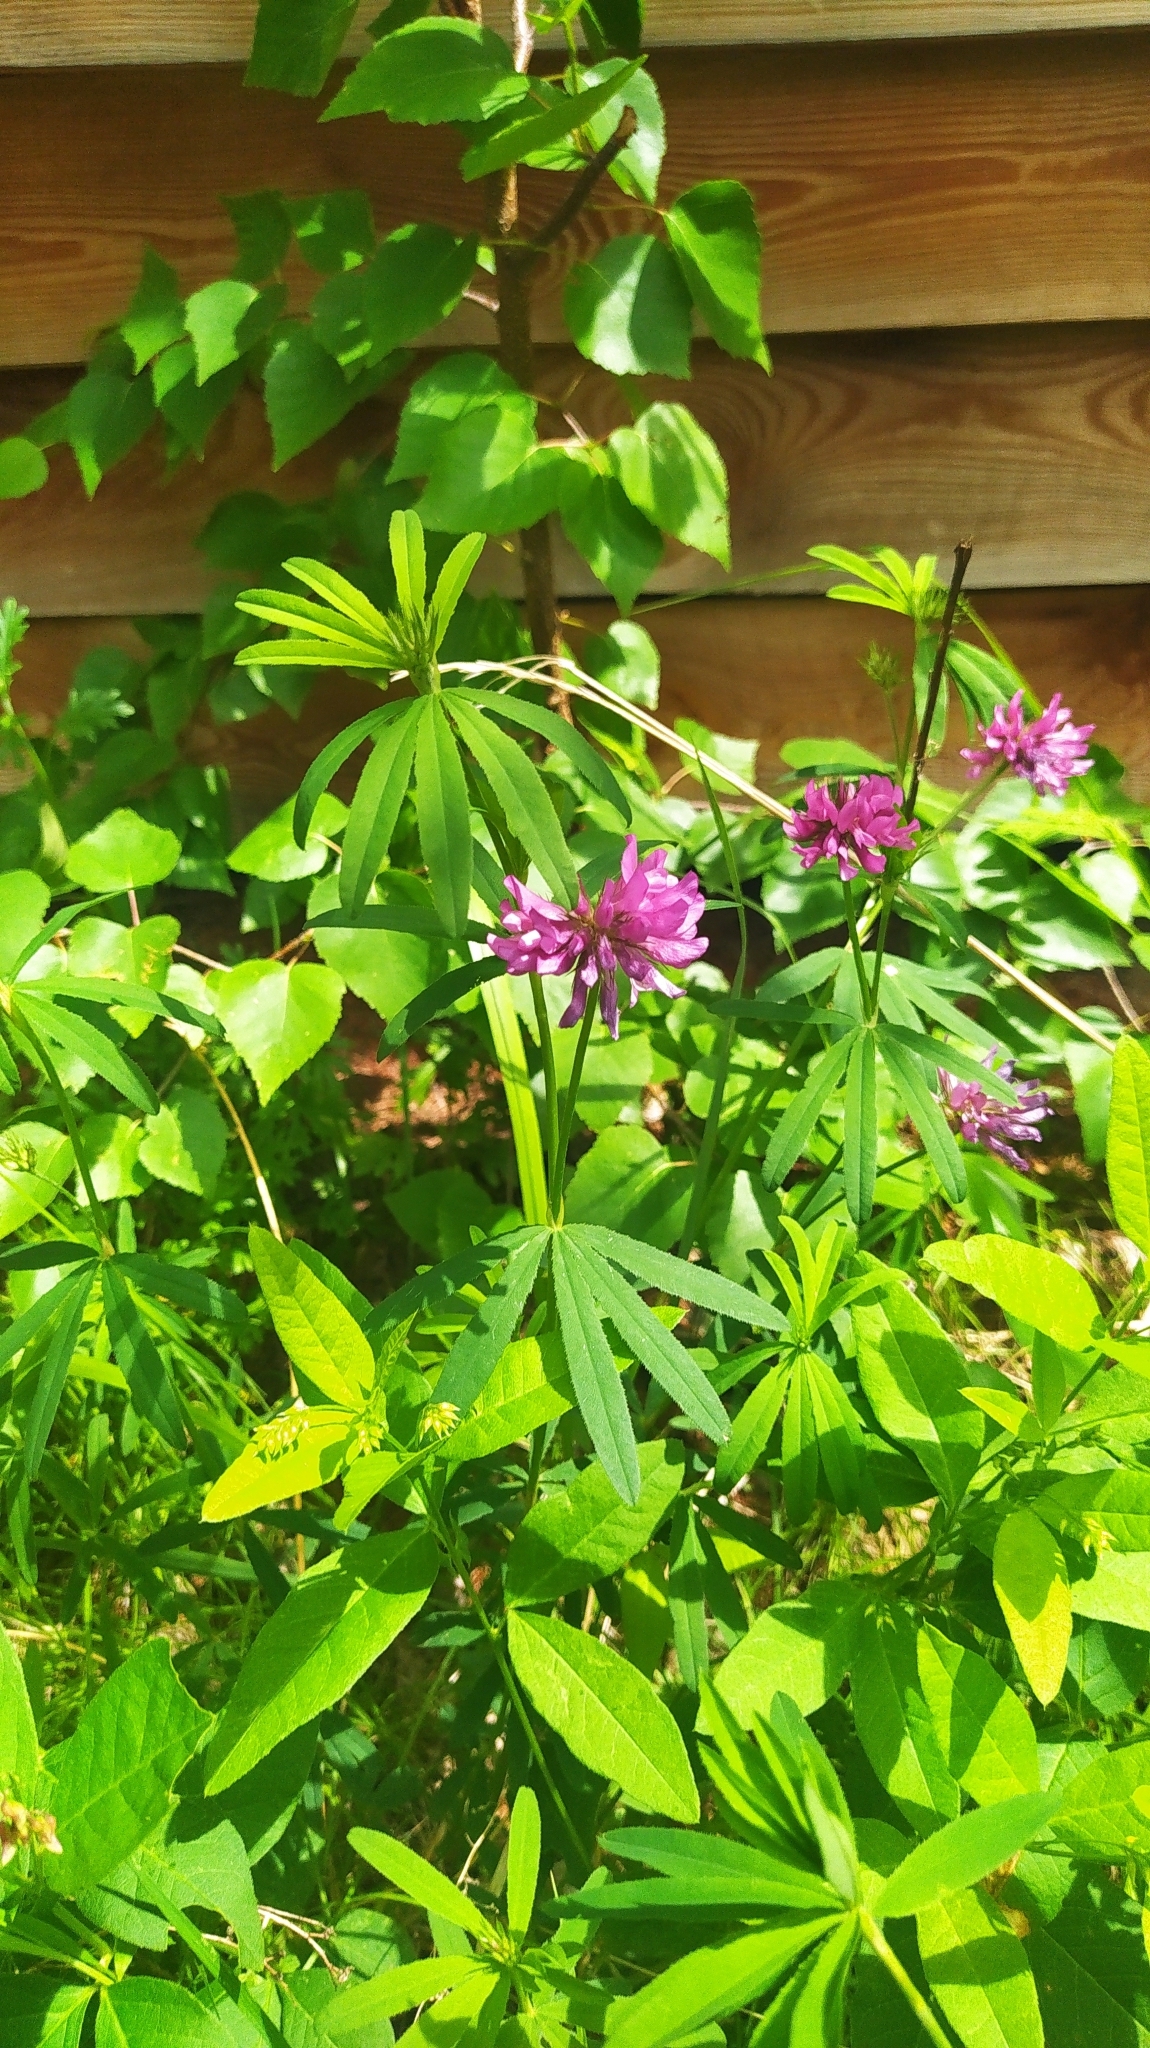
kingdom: Plantae
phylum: Tracheophyta
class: Magnoliopsida
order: Fabales
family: Fabaceae
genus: Trifolium
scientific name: Trifolium lupinaster
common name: Lupine clover
